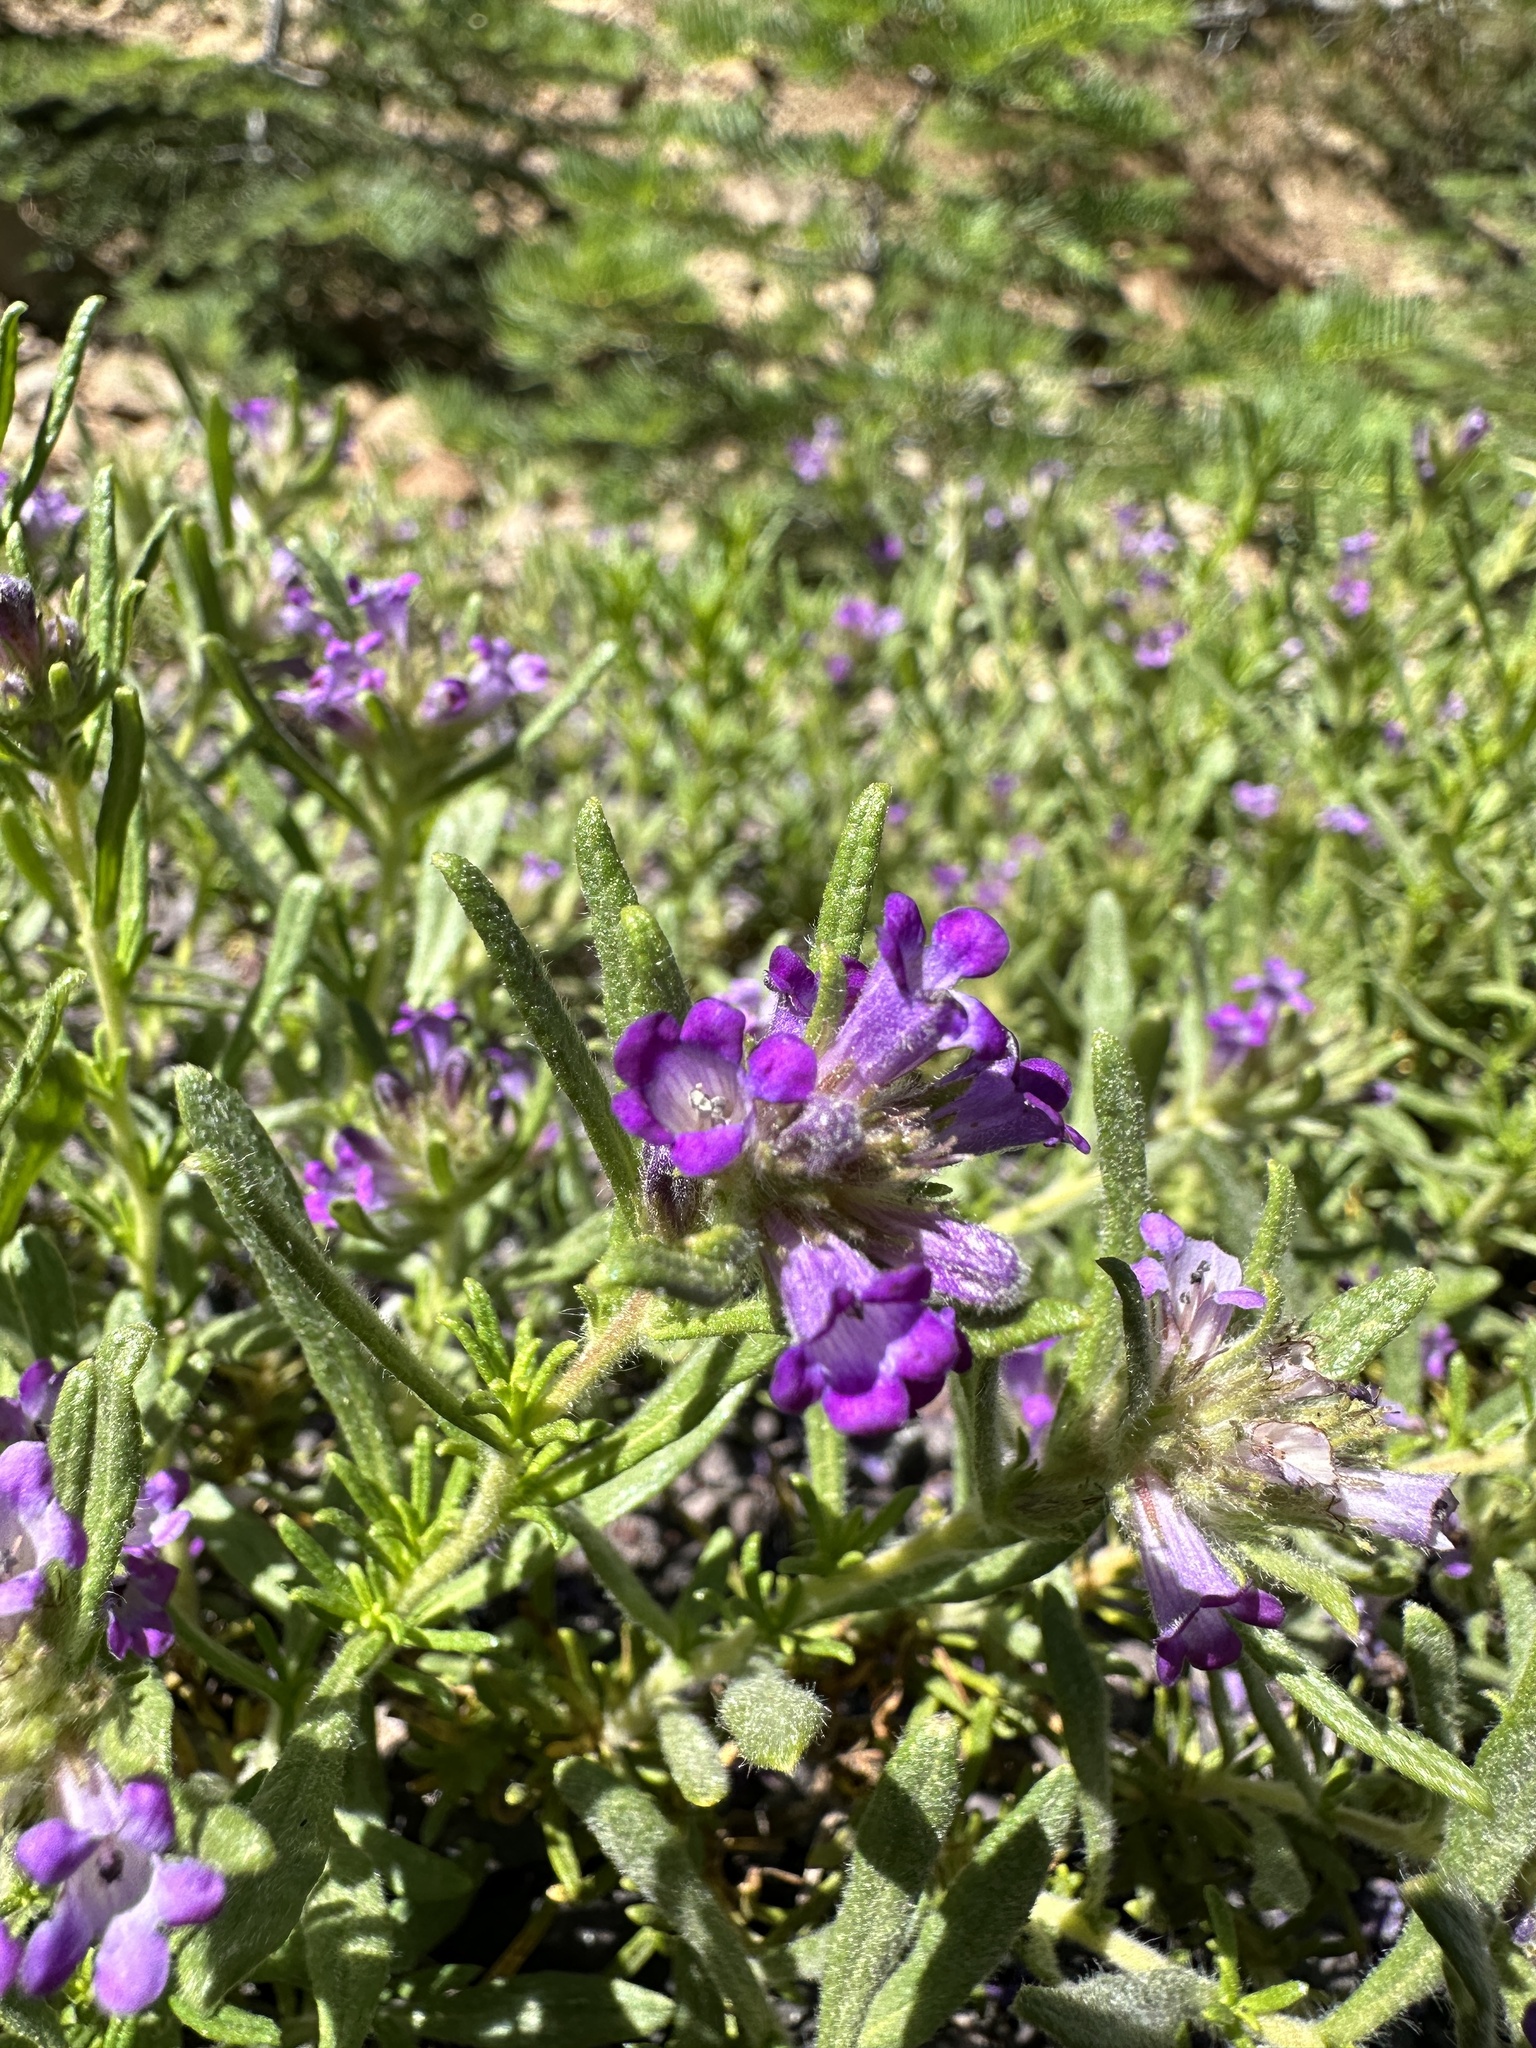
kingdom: Plantae
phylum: Tracheophyta
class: Magnoliopsida
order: Boraginales
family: Namaceae
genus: Nama
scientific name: Nama lobbii
